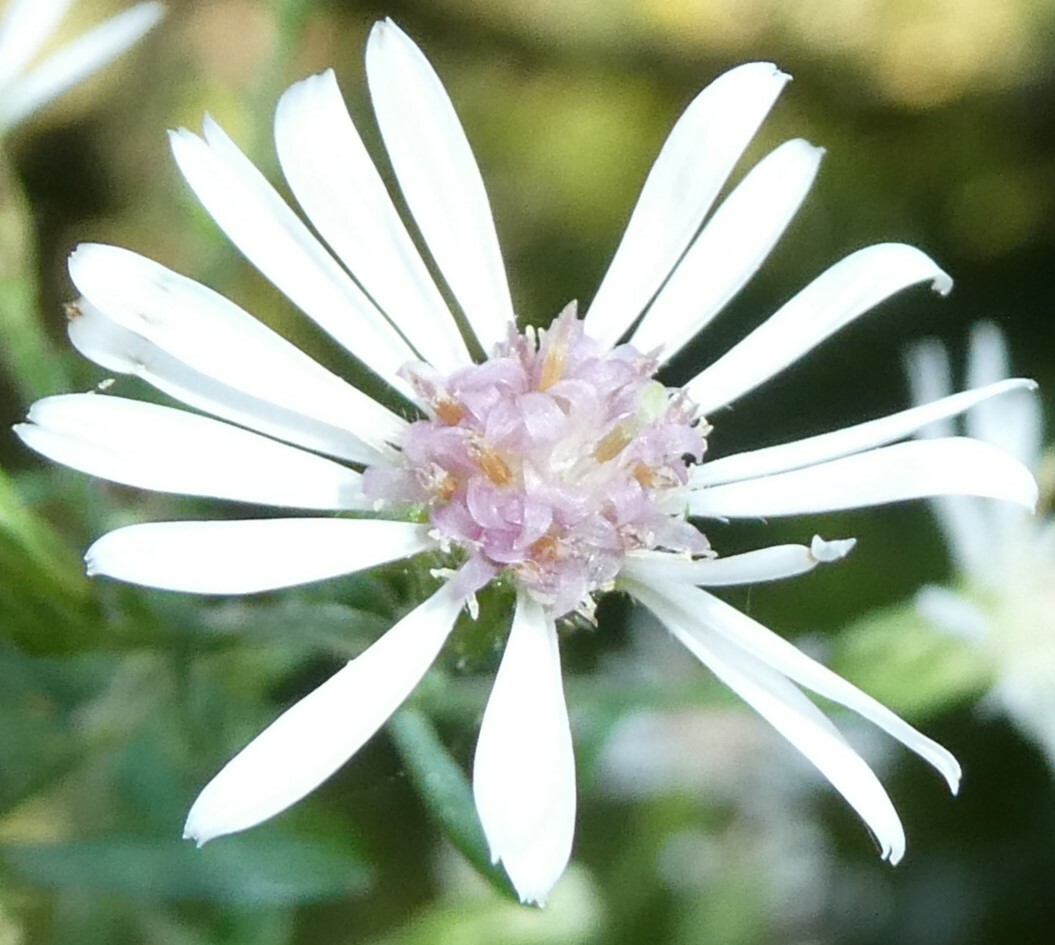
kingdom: Plantae
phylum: Tracheophyta
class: Magnoliopsida
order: Asterales
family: Asteraceae
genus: Symphyotrichum
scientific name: Symphyotrichum lateriflorum
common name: Calico aster
